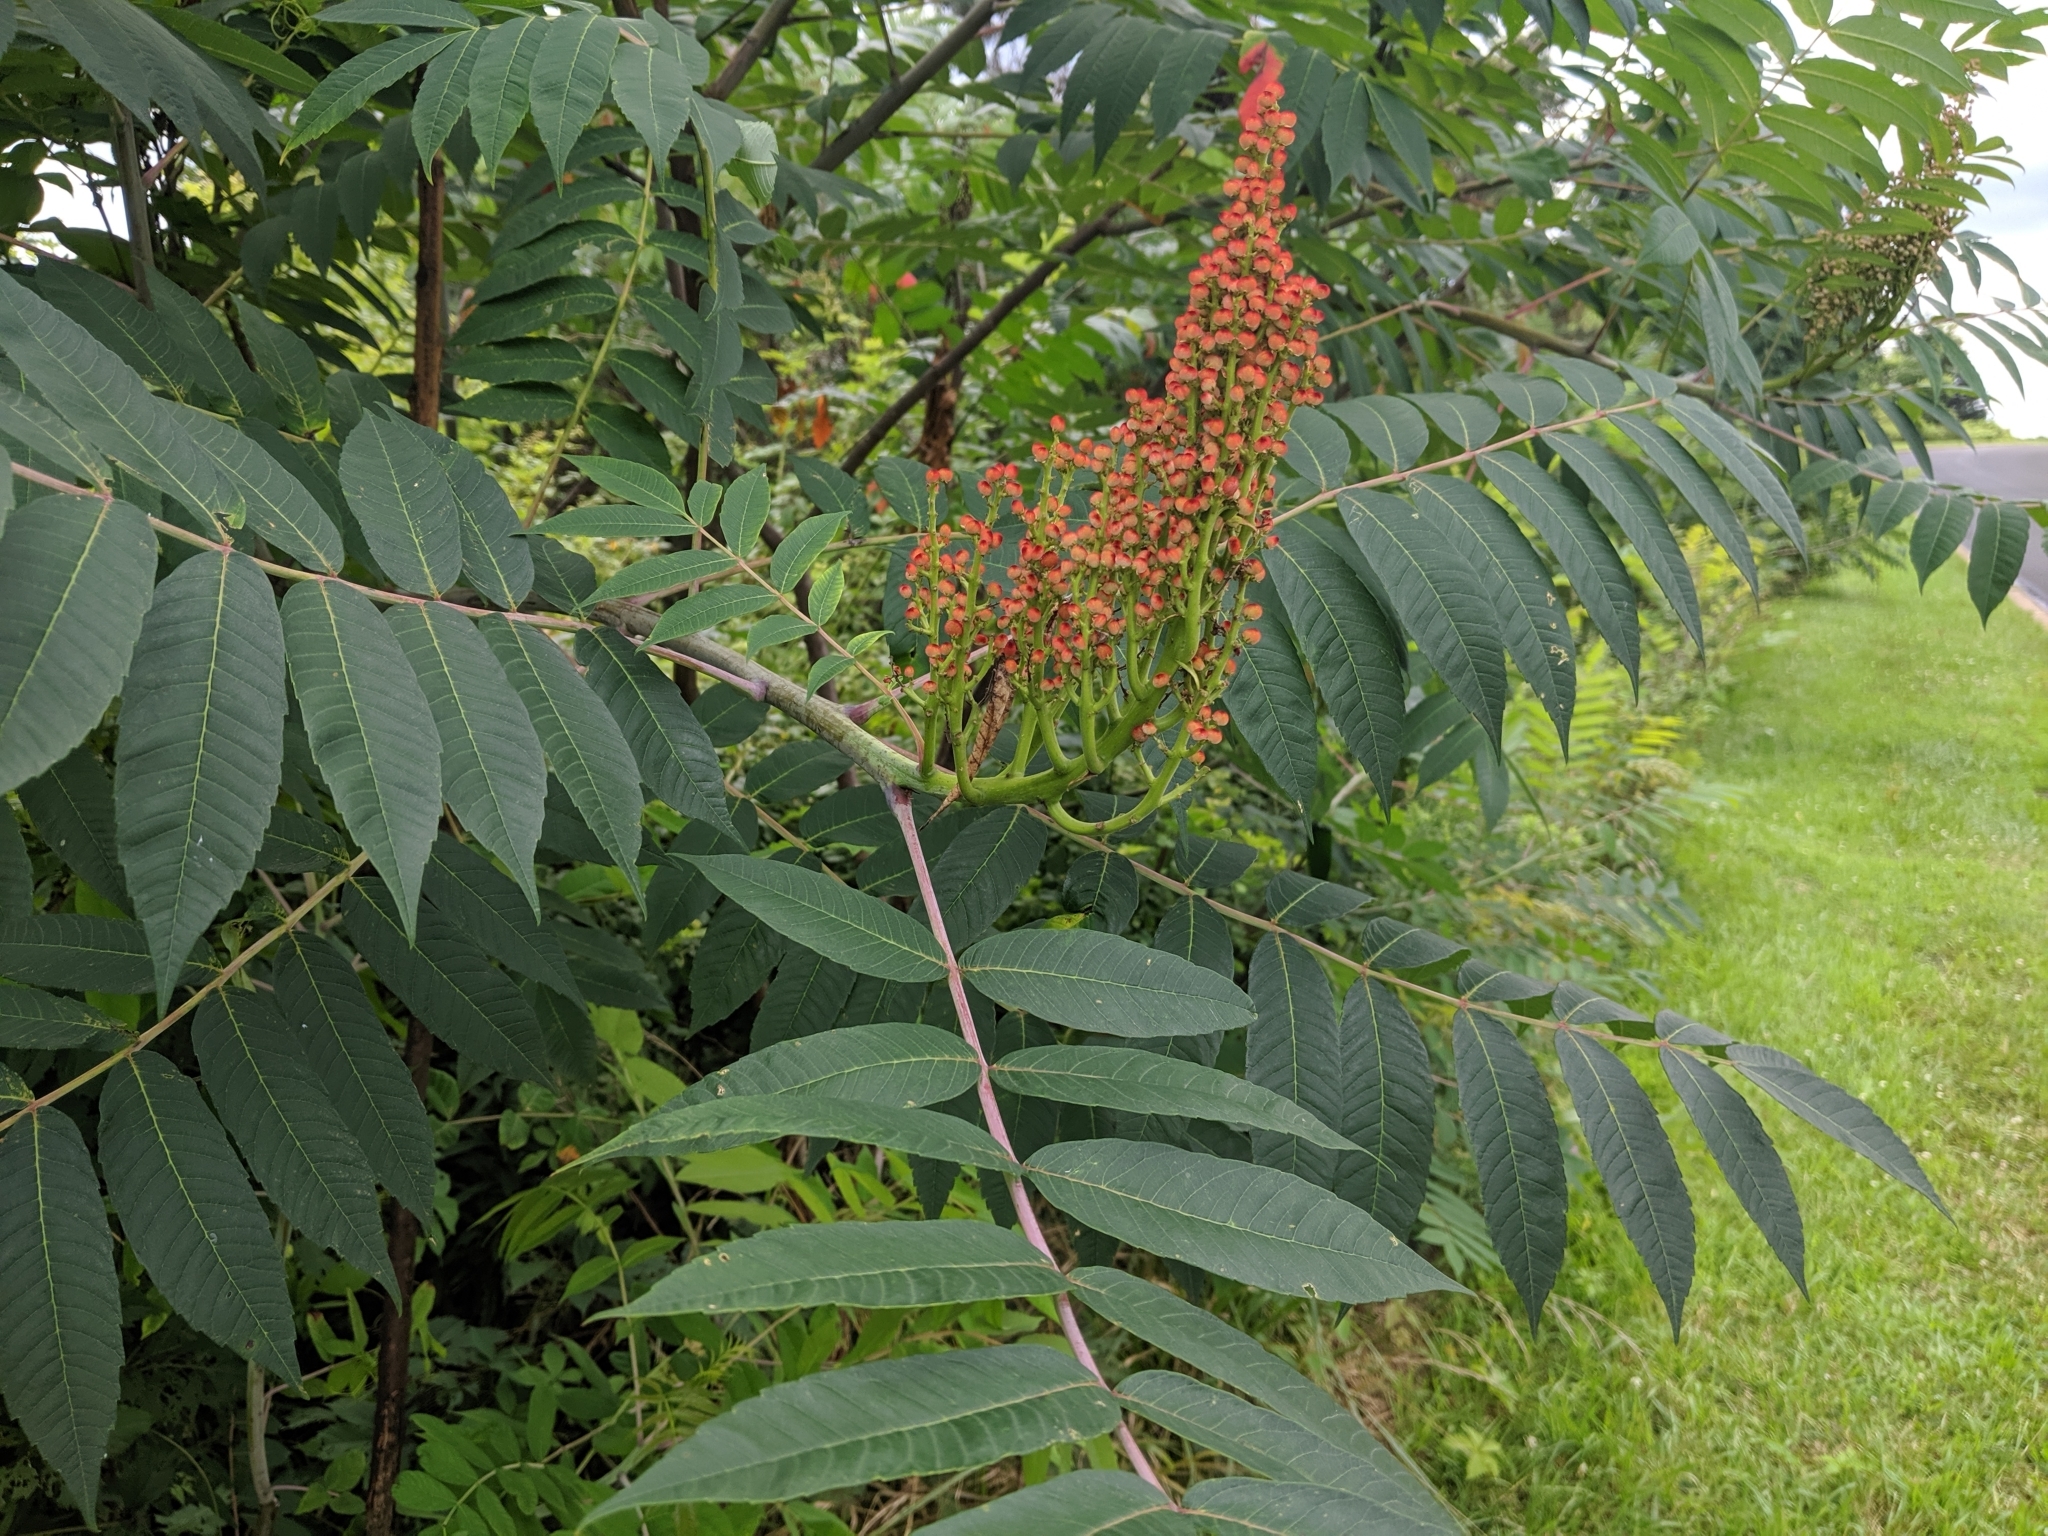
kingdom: Plantae
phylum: Tracheophyta
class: Magnoliopsida
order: Sapindales
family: Anacardiaceae
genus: Rhus
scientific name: Rhus glabra
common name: Scarlet sumac
